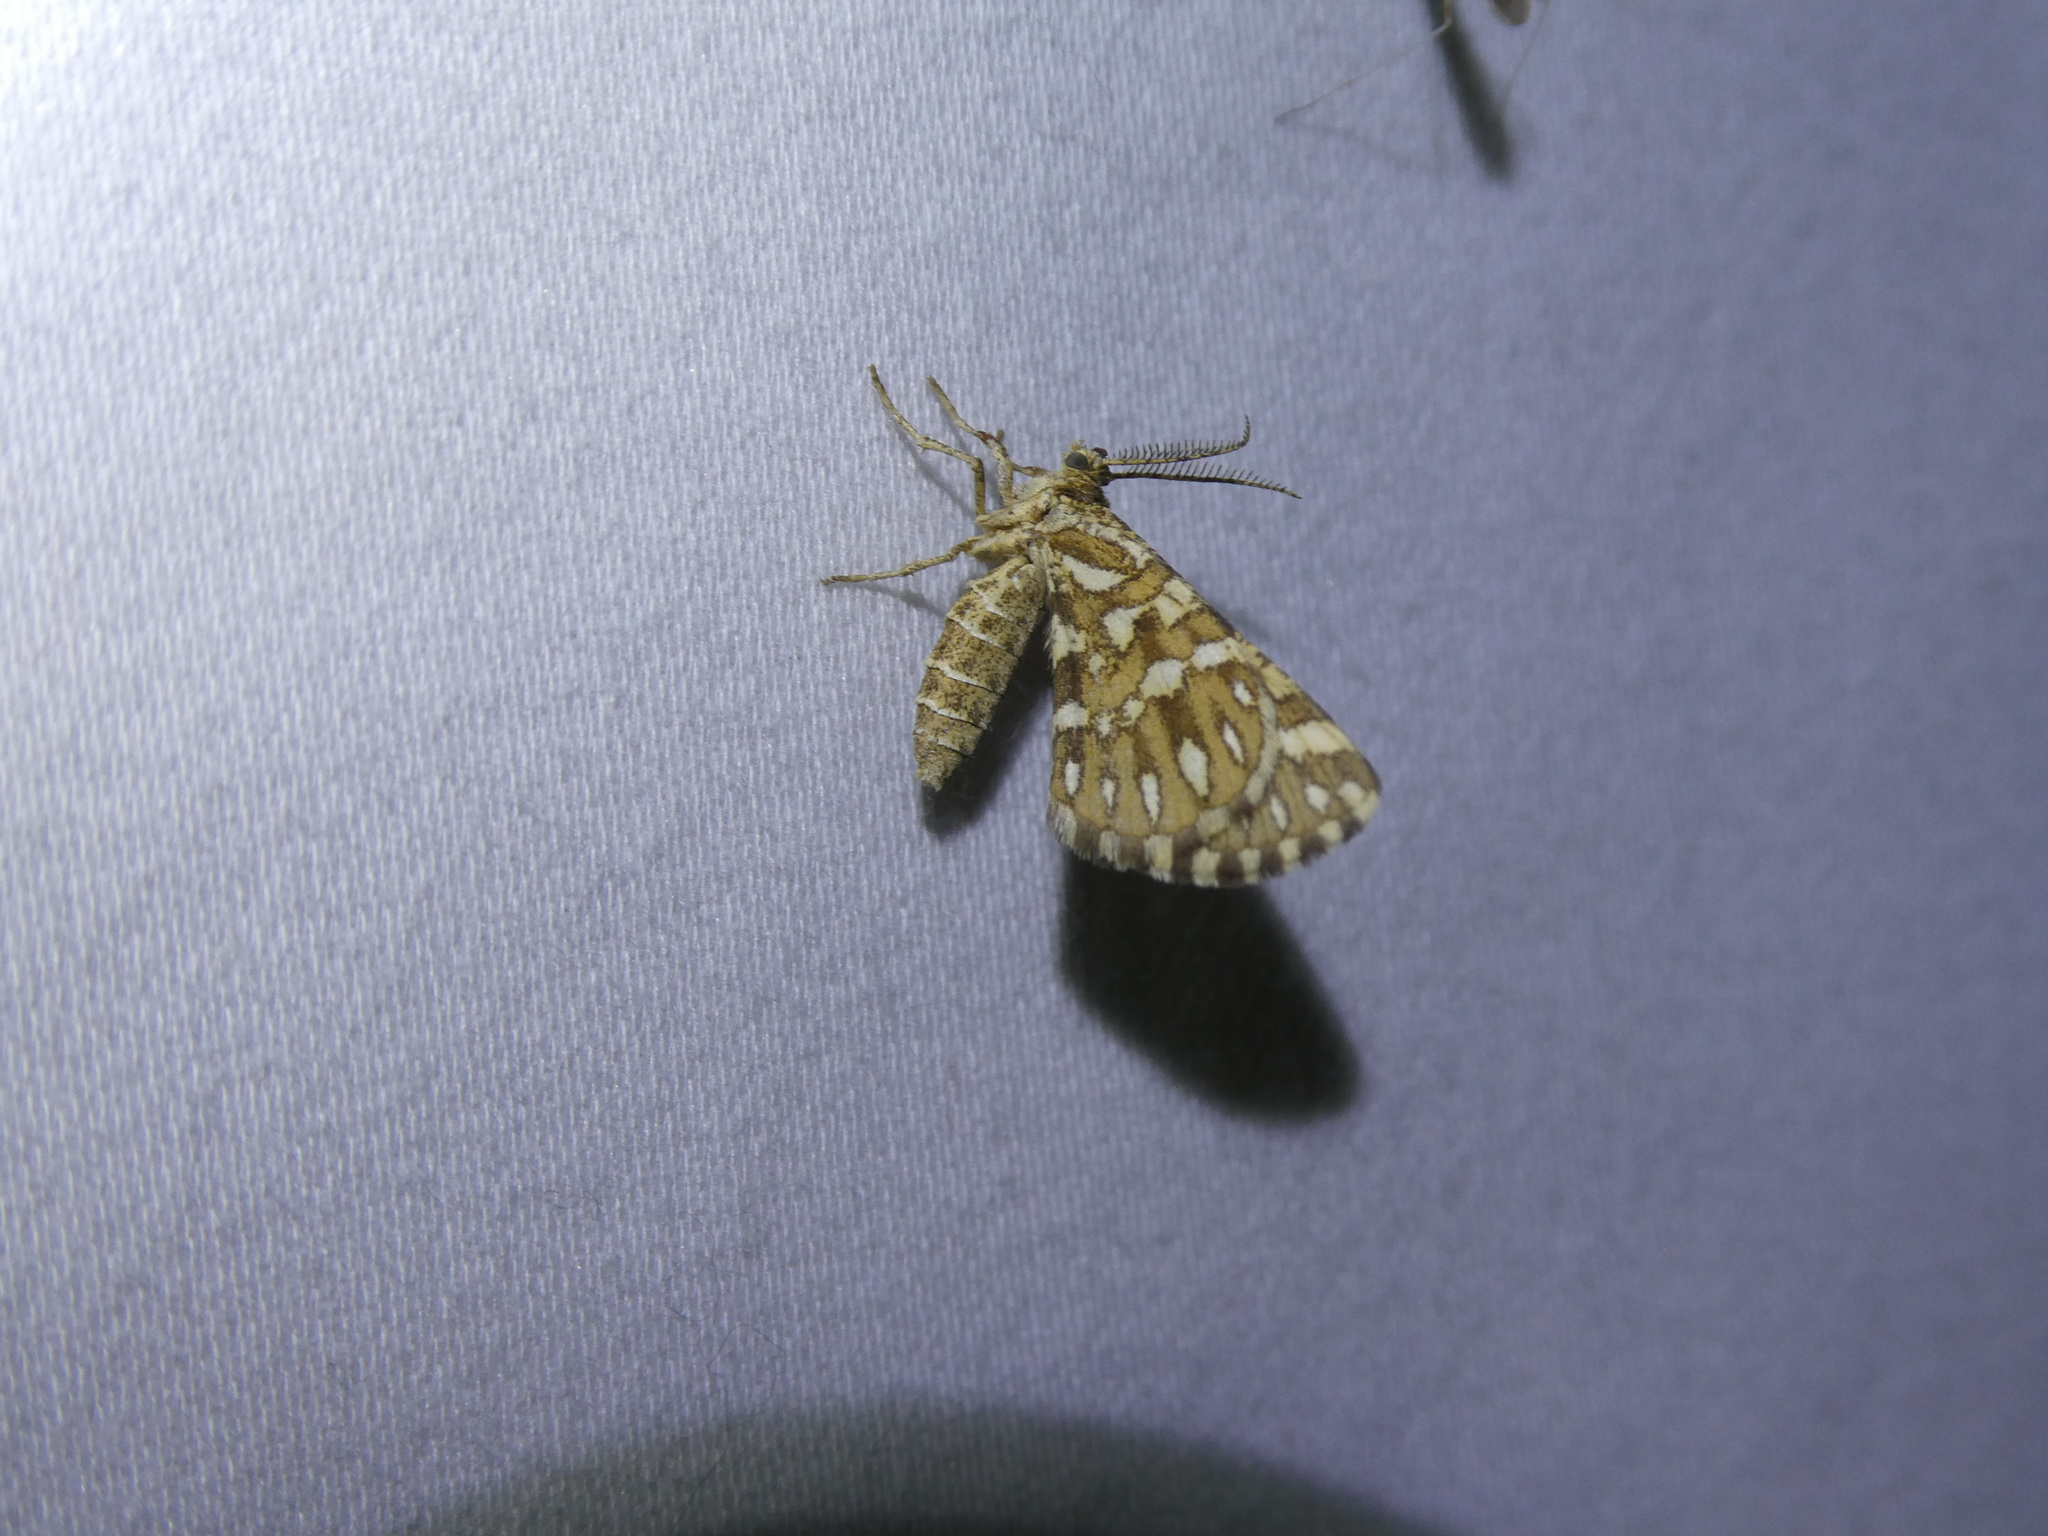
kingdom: Animalia
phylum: Arthropoda
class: Insecta
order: Lepidoptera
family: Geometridae
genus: Narraga
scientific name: Narraga fimetaria
